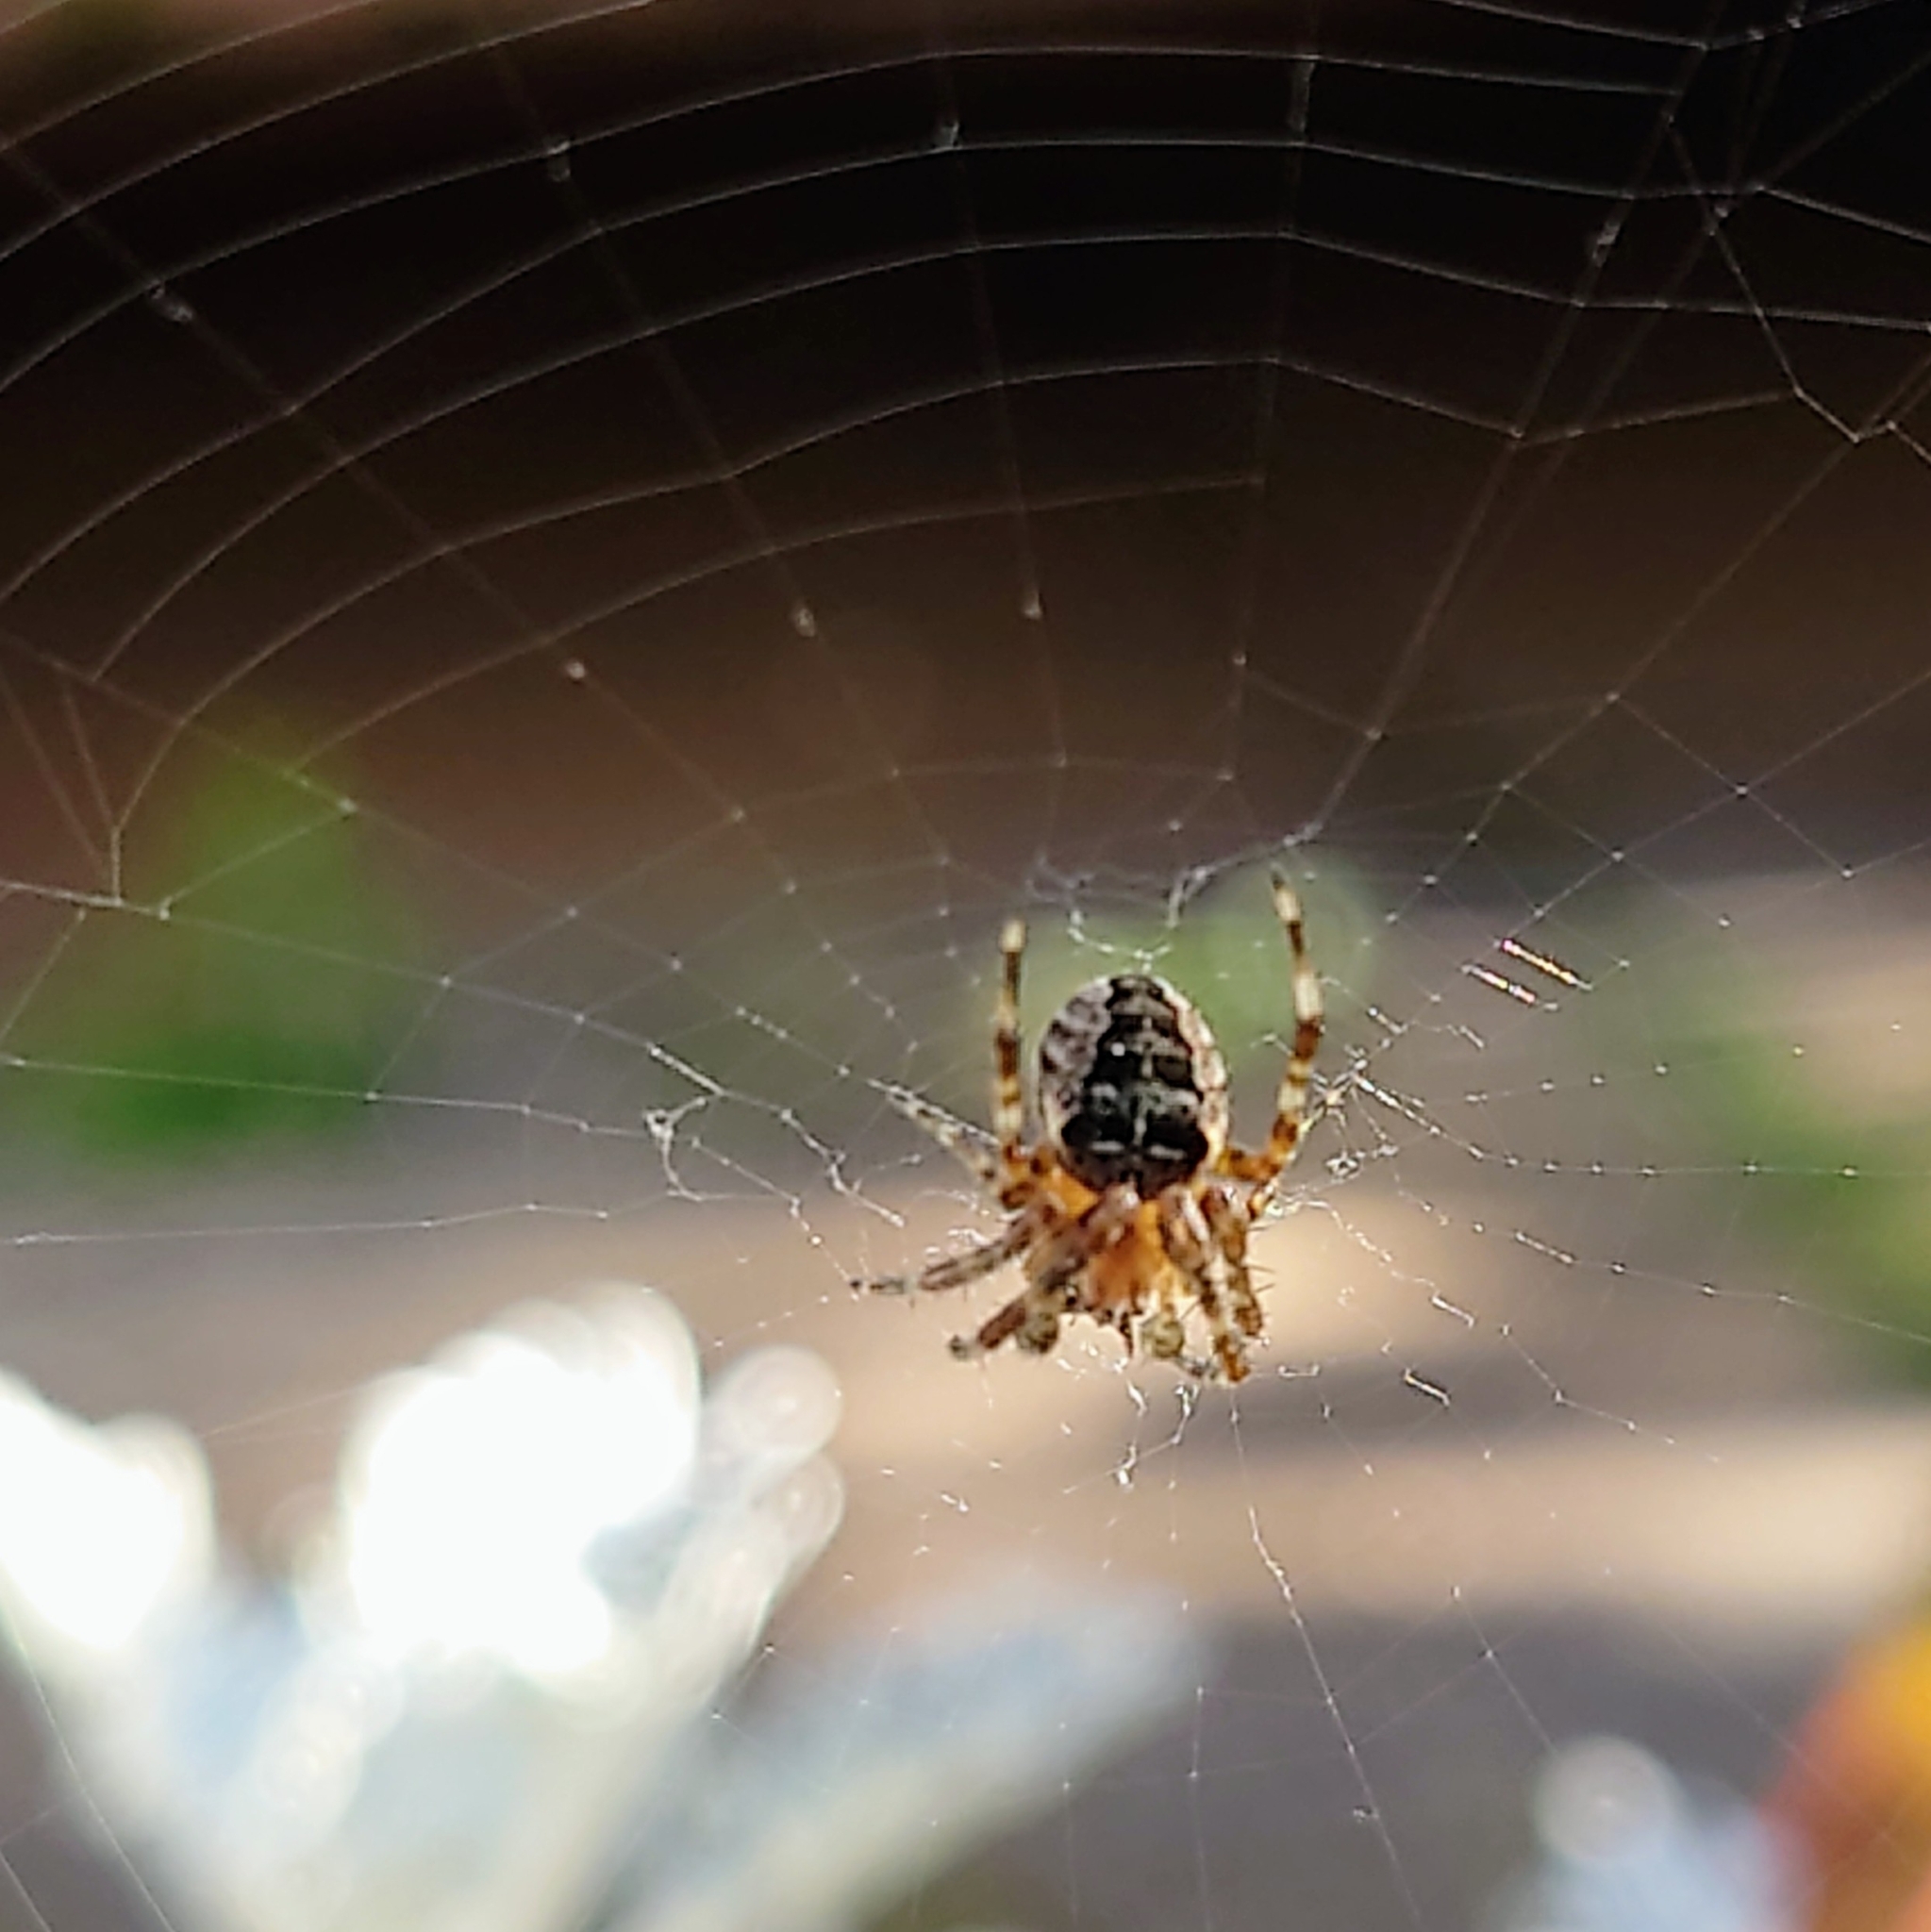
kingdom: Animalia
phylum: Arthropoda
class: Arachnida
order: Araneae
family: Araneidae
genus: Araneus
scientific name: Araneus diadematus
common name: Cross orbweaver
